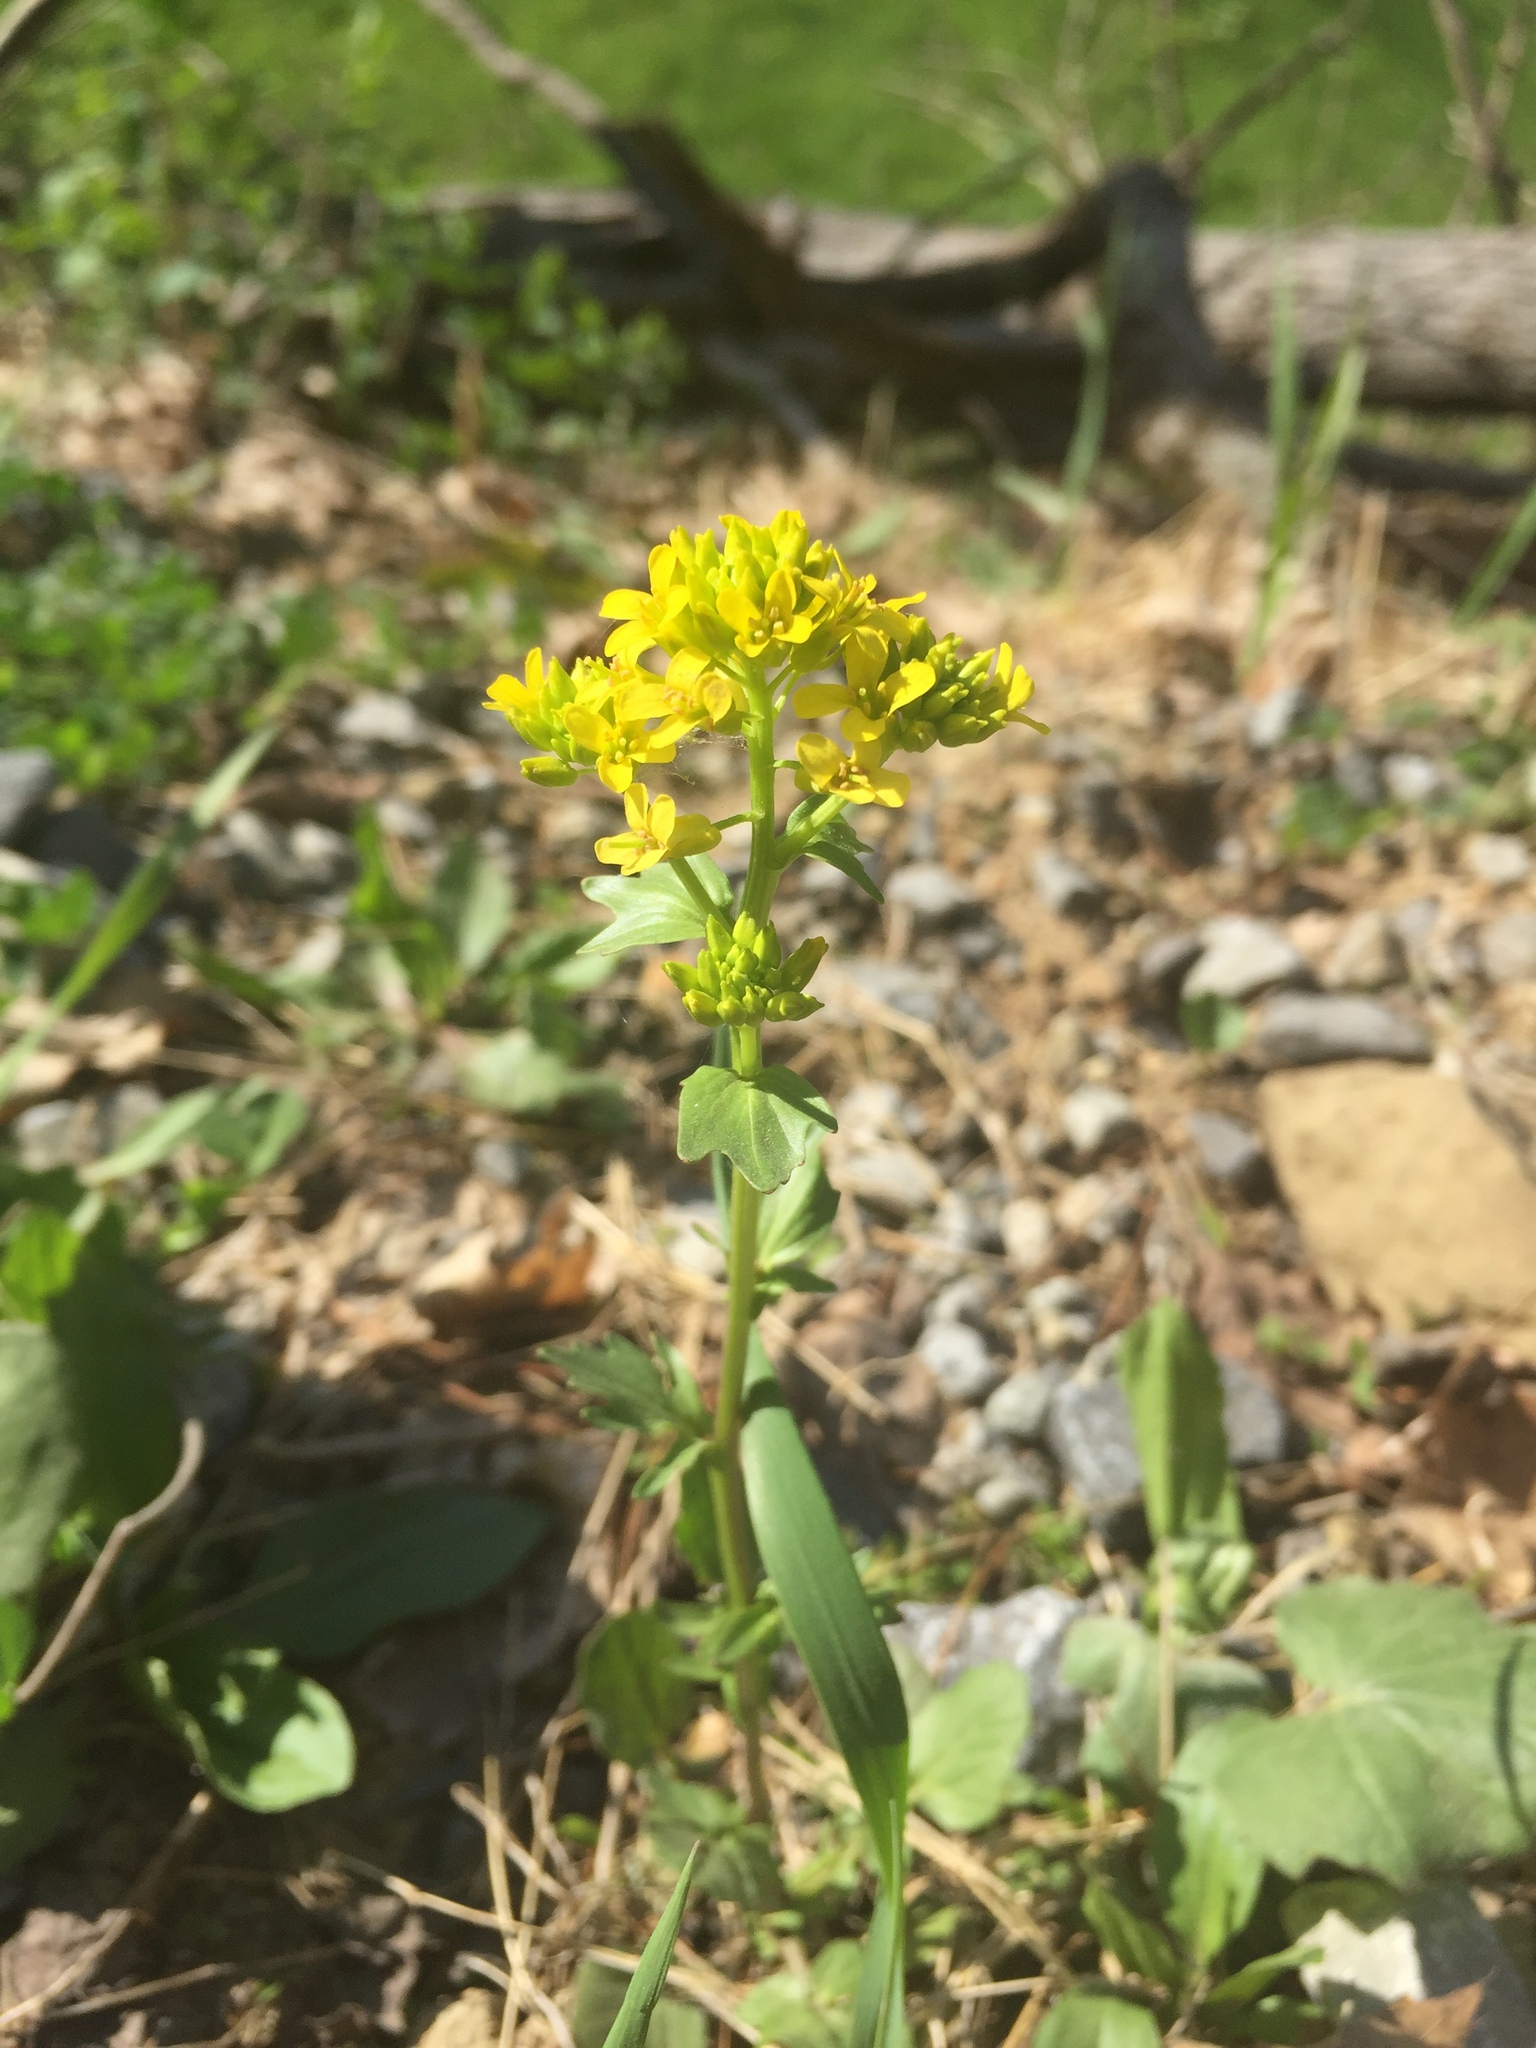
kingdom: Plantae
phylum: Tracheophyta
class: Magnoliopsida
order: Brassicales
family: Brassicaceae
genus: Barbarea
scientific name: Barbarea vulgaris
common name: Cressy-greens
